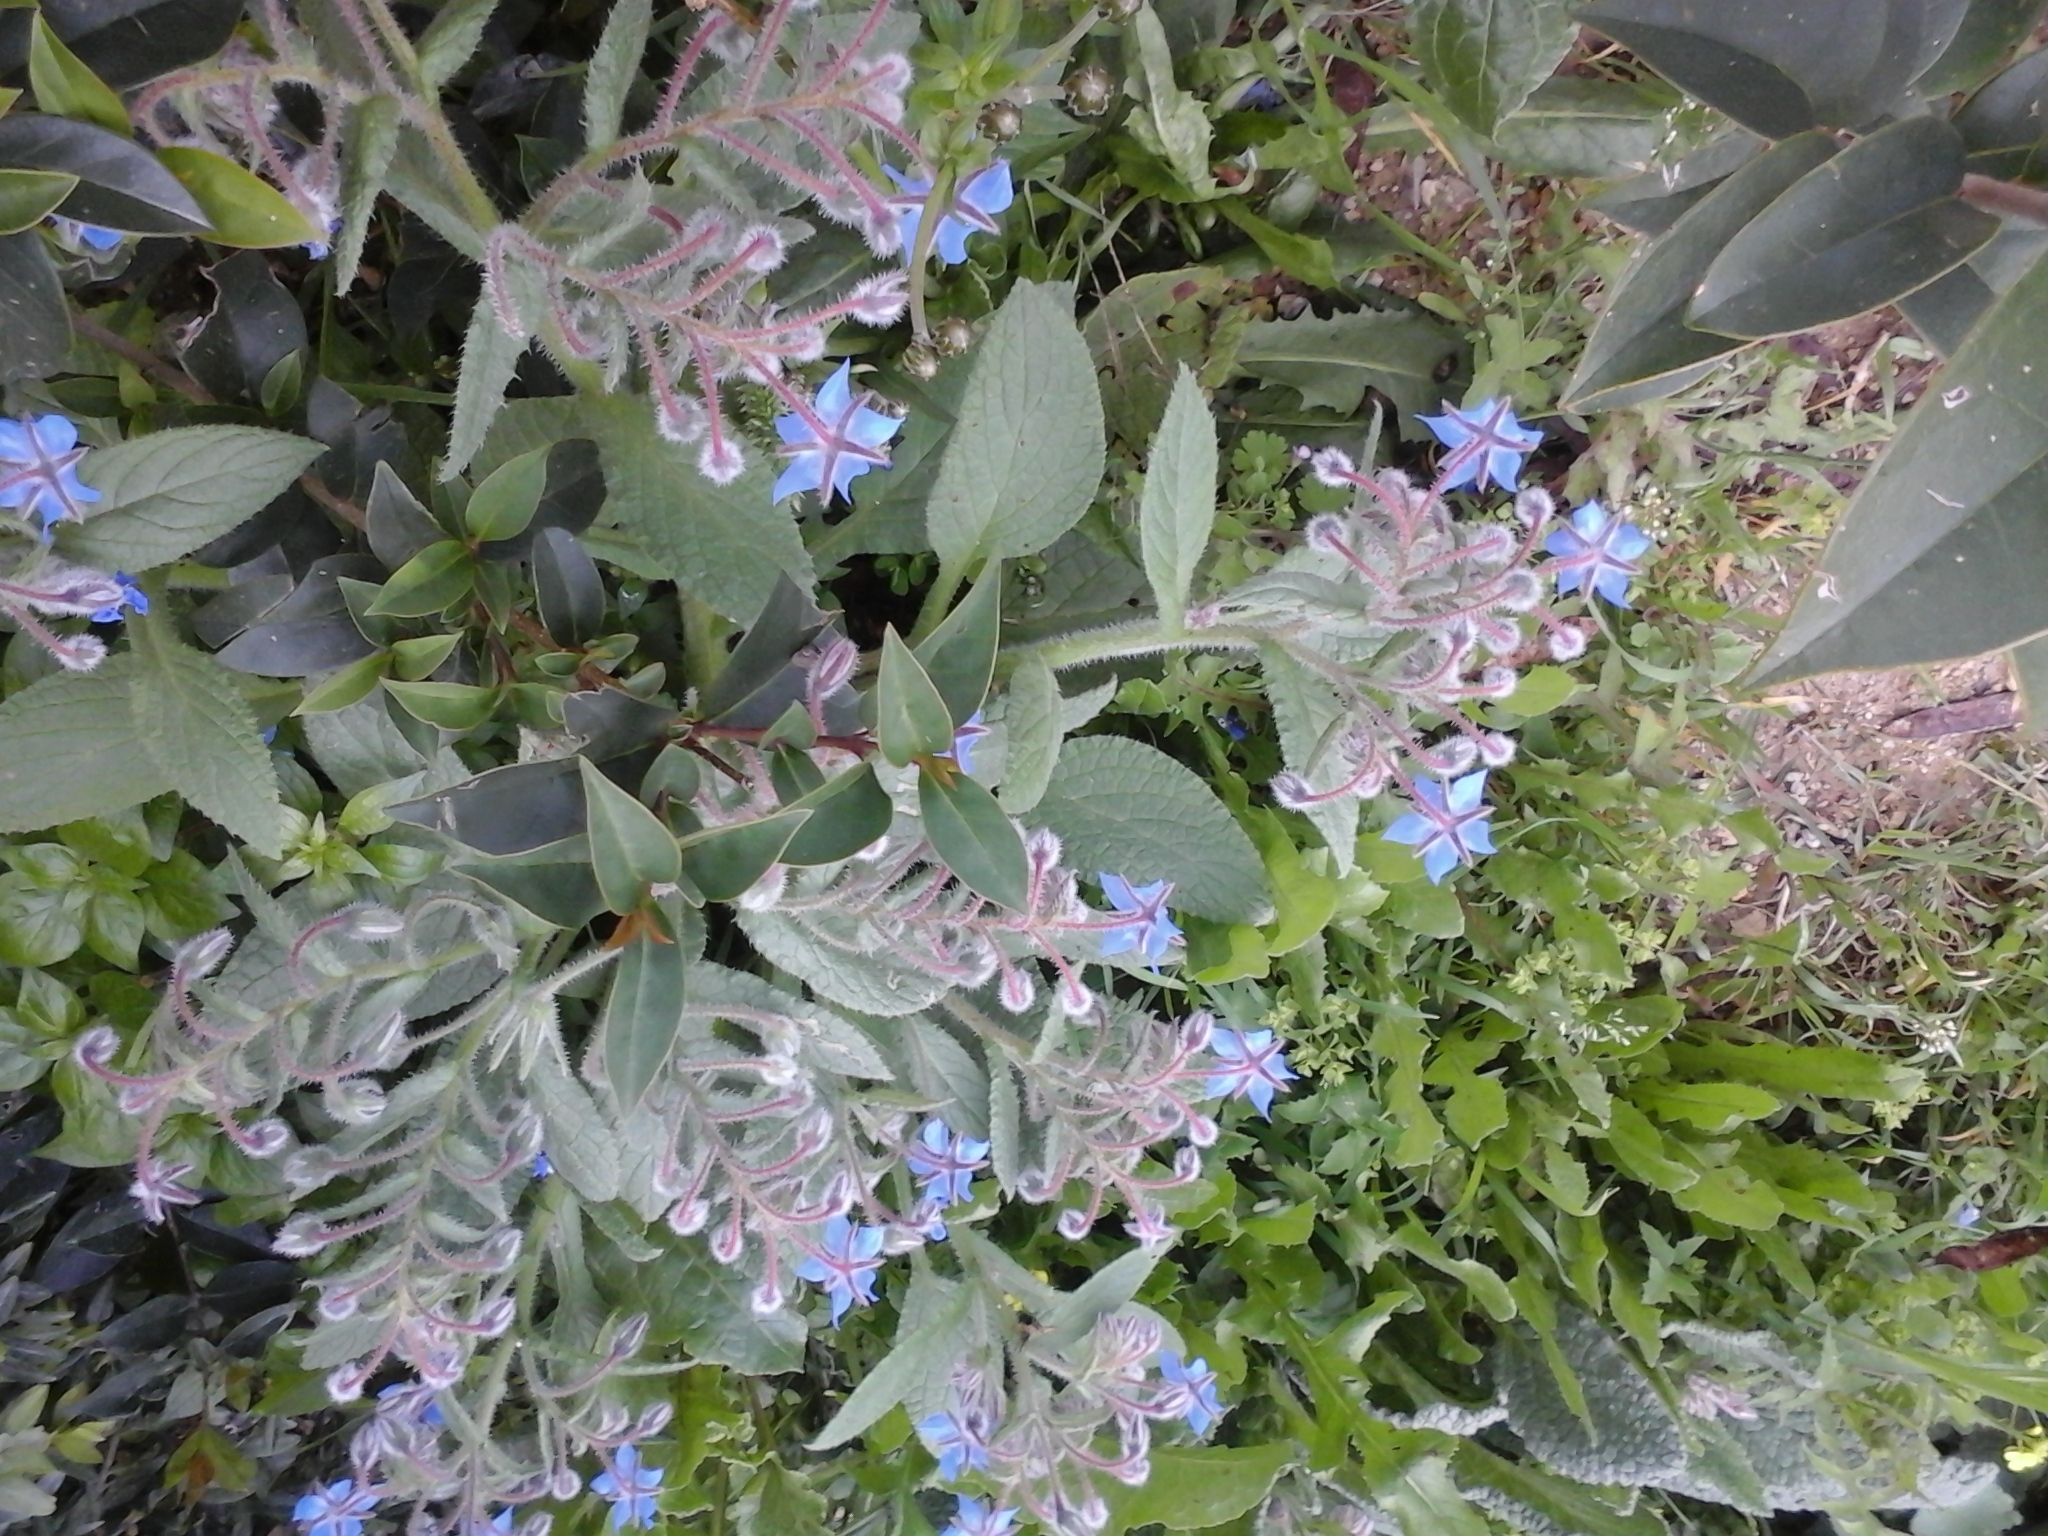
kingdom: Plantae
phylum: Tracheophyta
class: Magnoliopsida
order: Boraginales
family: Boraginaceae
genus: Borago
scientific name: Borago officinalis
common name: Borage
